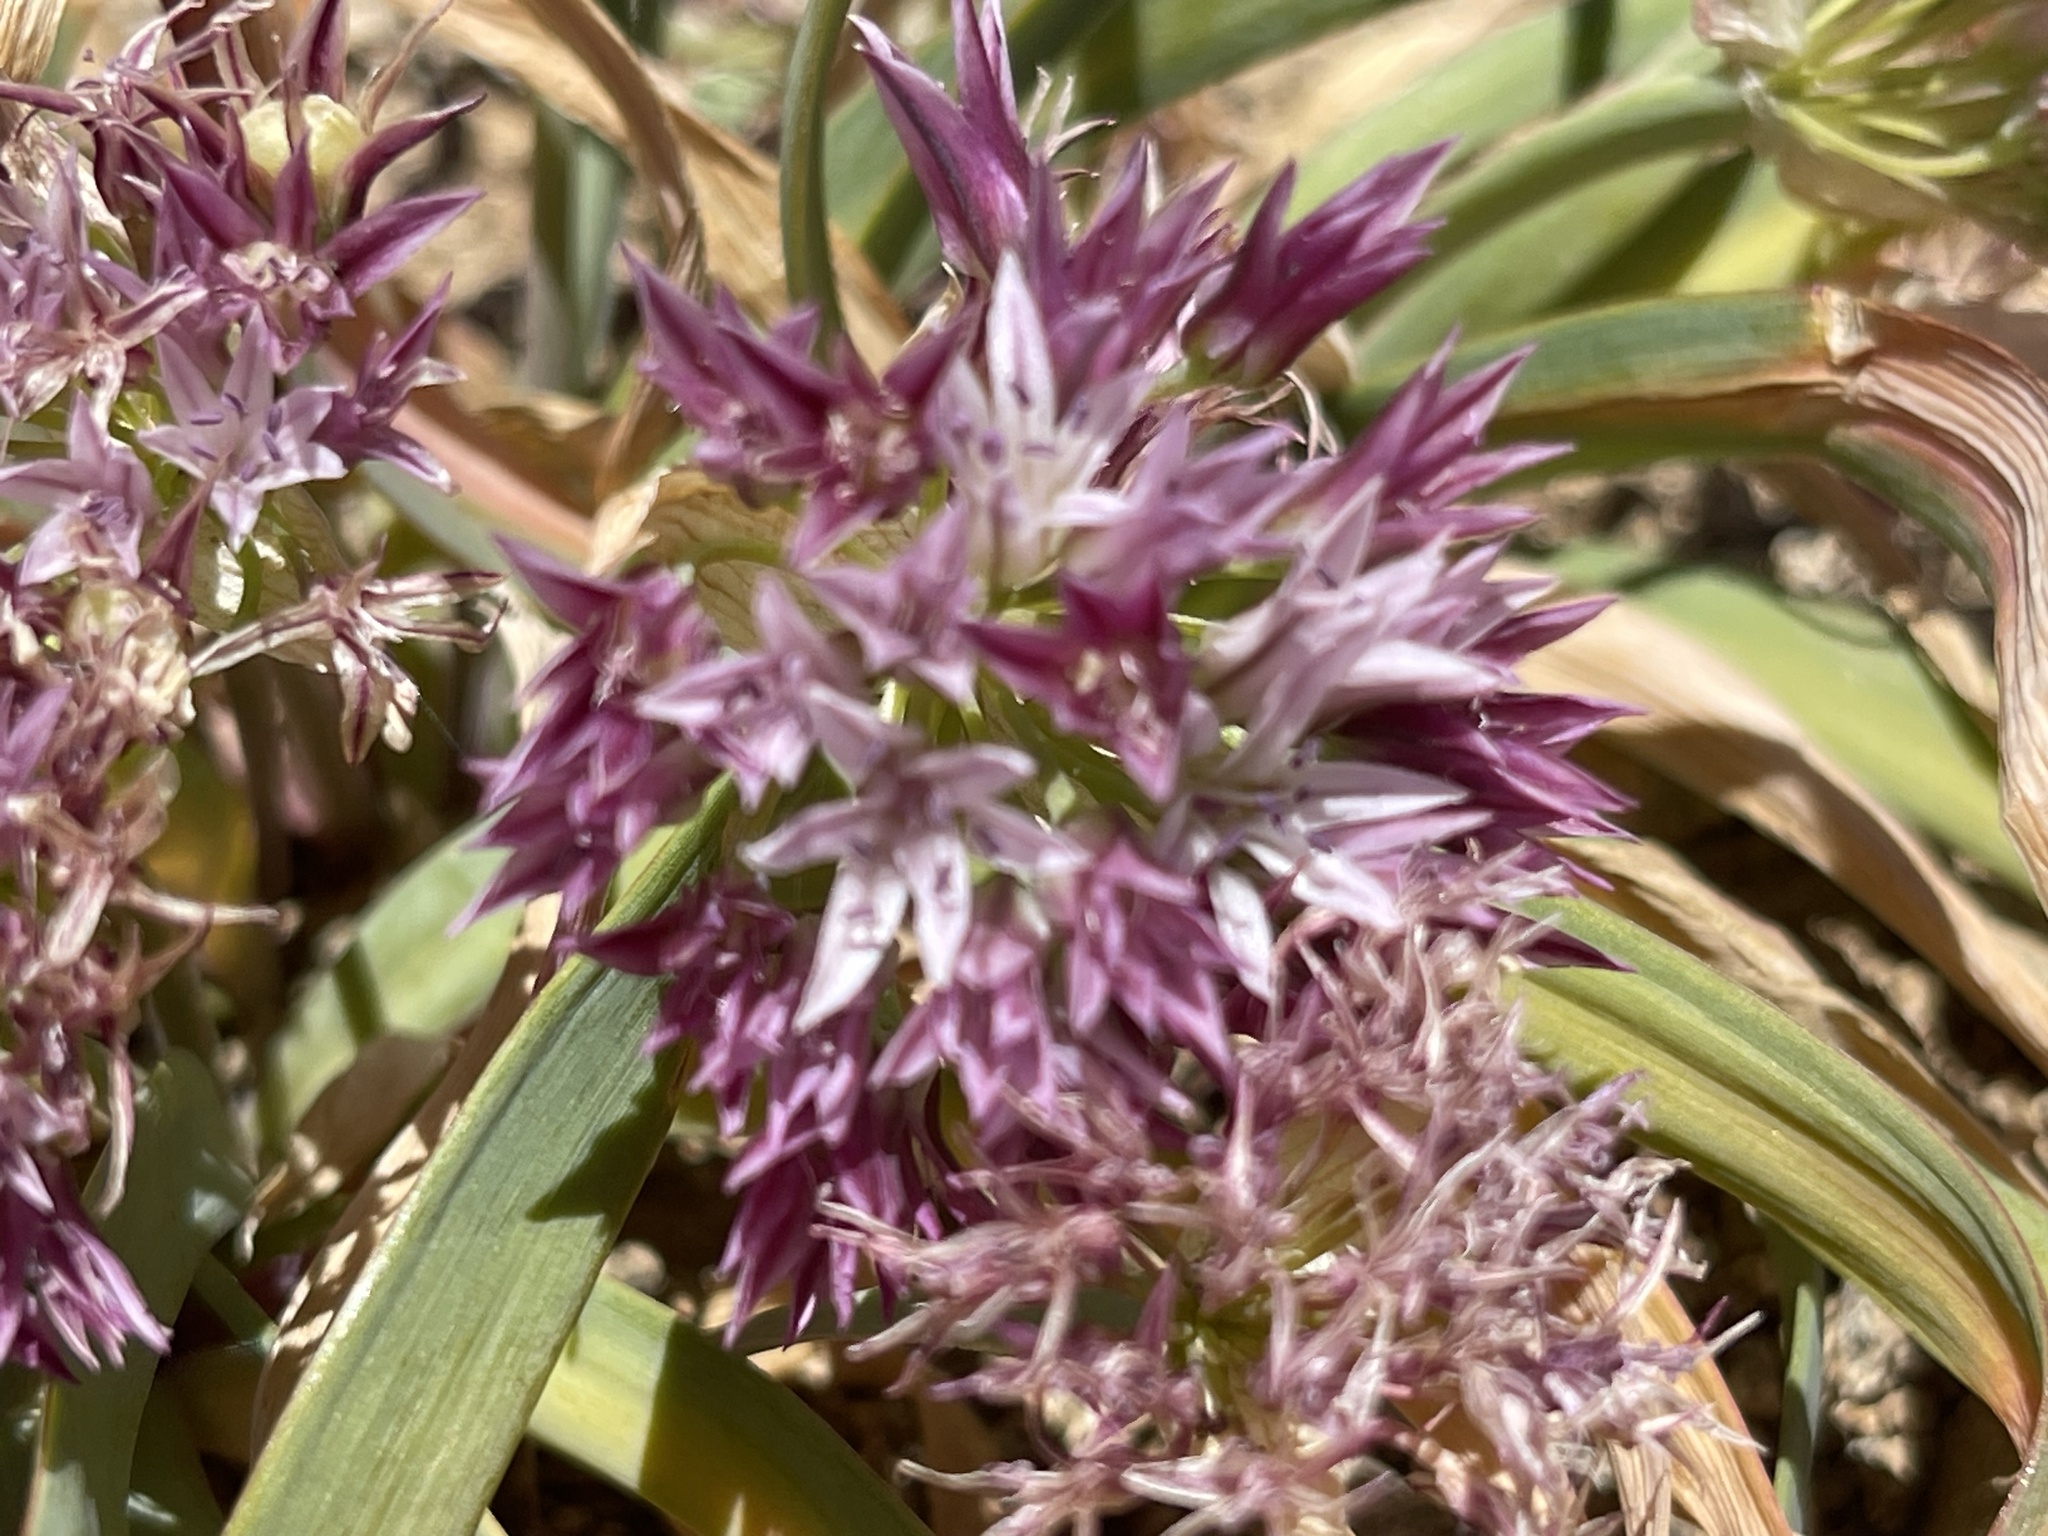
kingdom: Plantae
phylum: Tracheophyta
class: Liliopsida
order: Asparagales
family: Amaryllidaceae
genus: Allium
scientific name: Allium crenulatum
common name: Olympic onion
